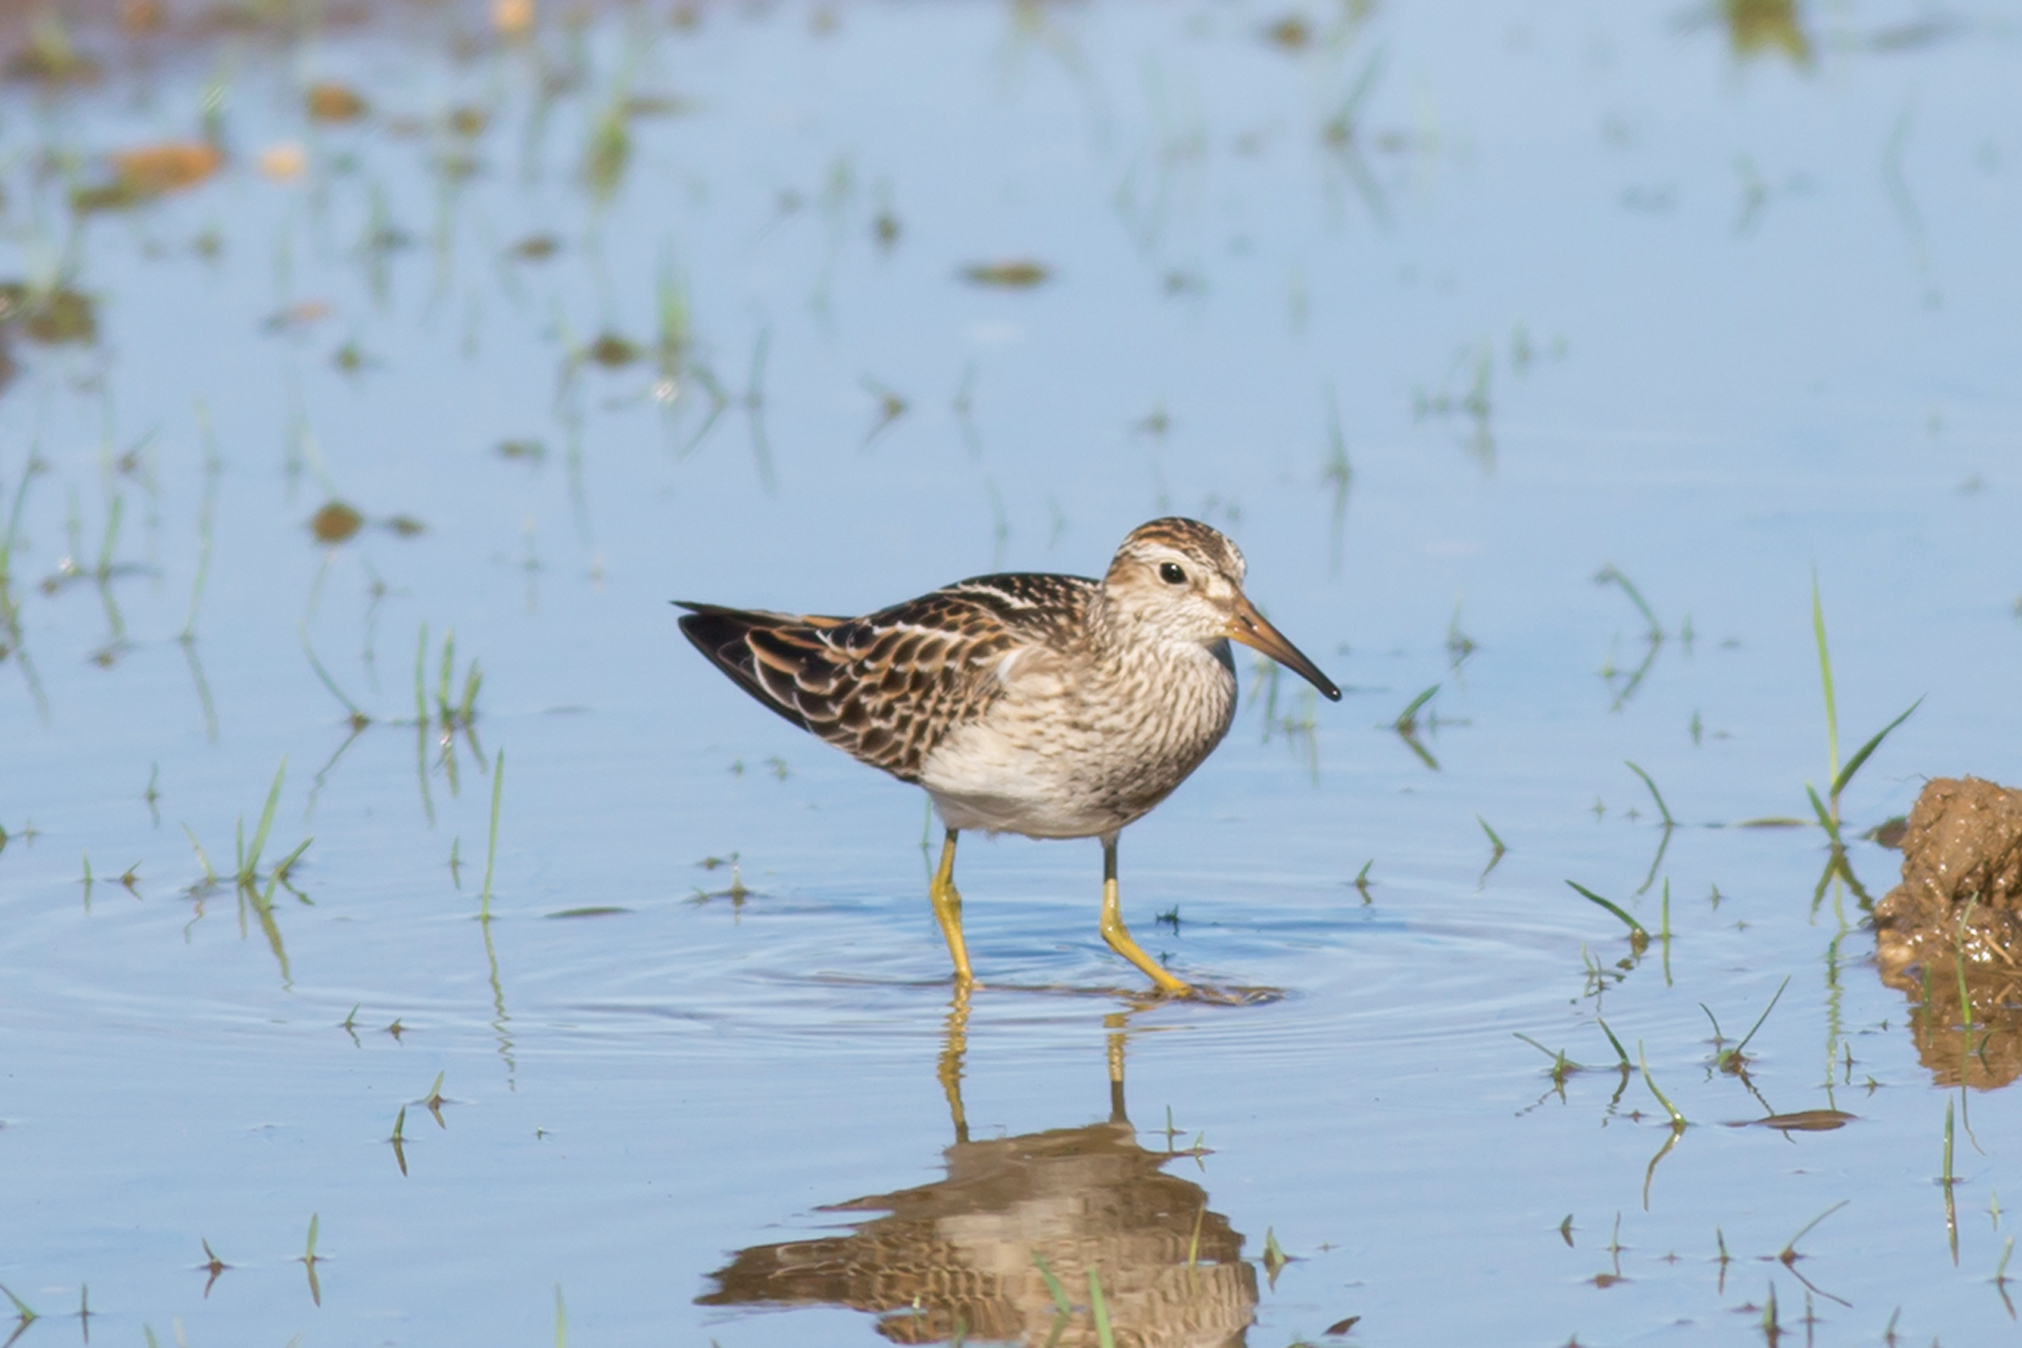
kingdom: Animalia
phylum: Chordata
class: Aves
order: Charadriiformes
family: Scolopacidae
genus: Calidris
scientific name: Calidris melanotos
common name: Pectoral sandpiper
